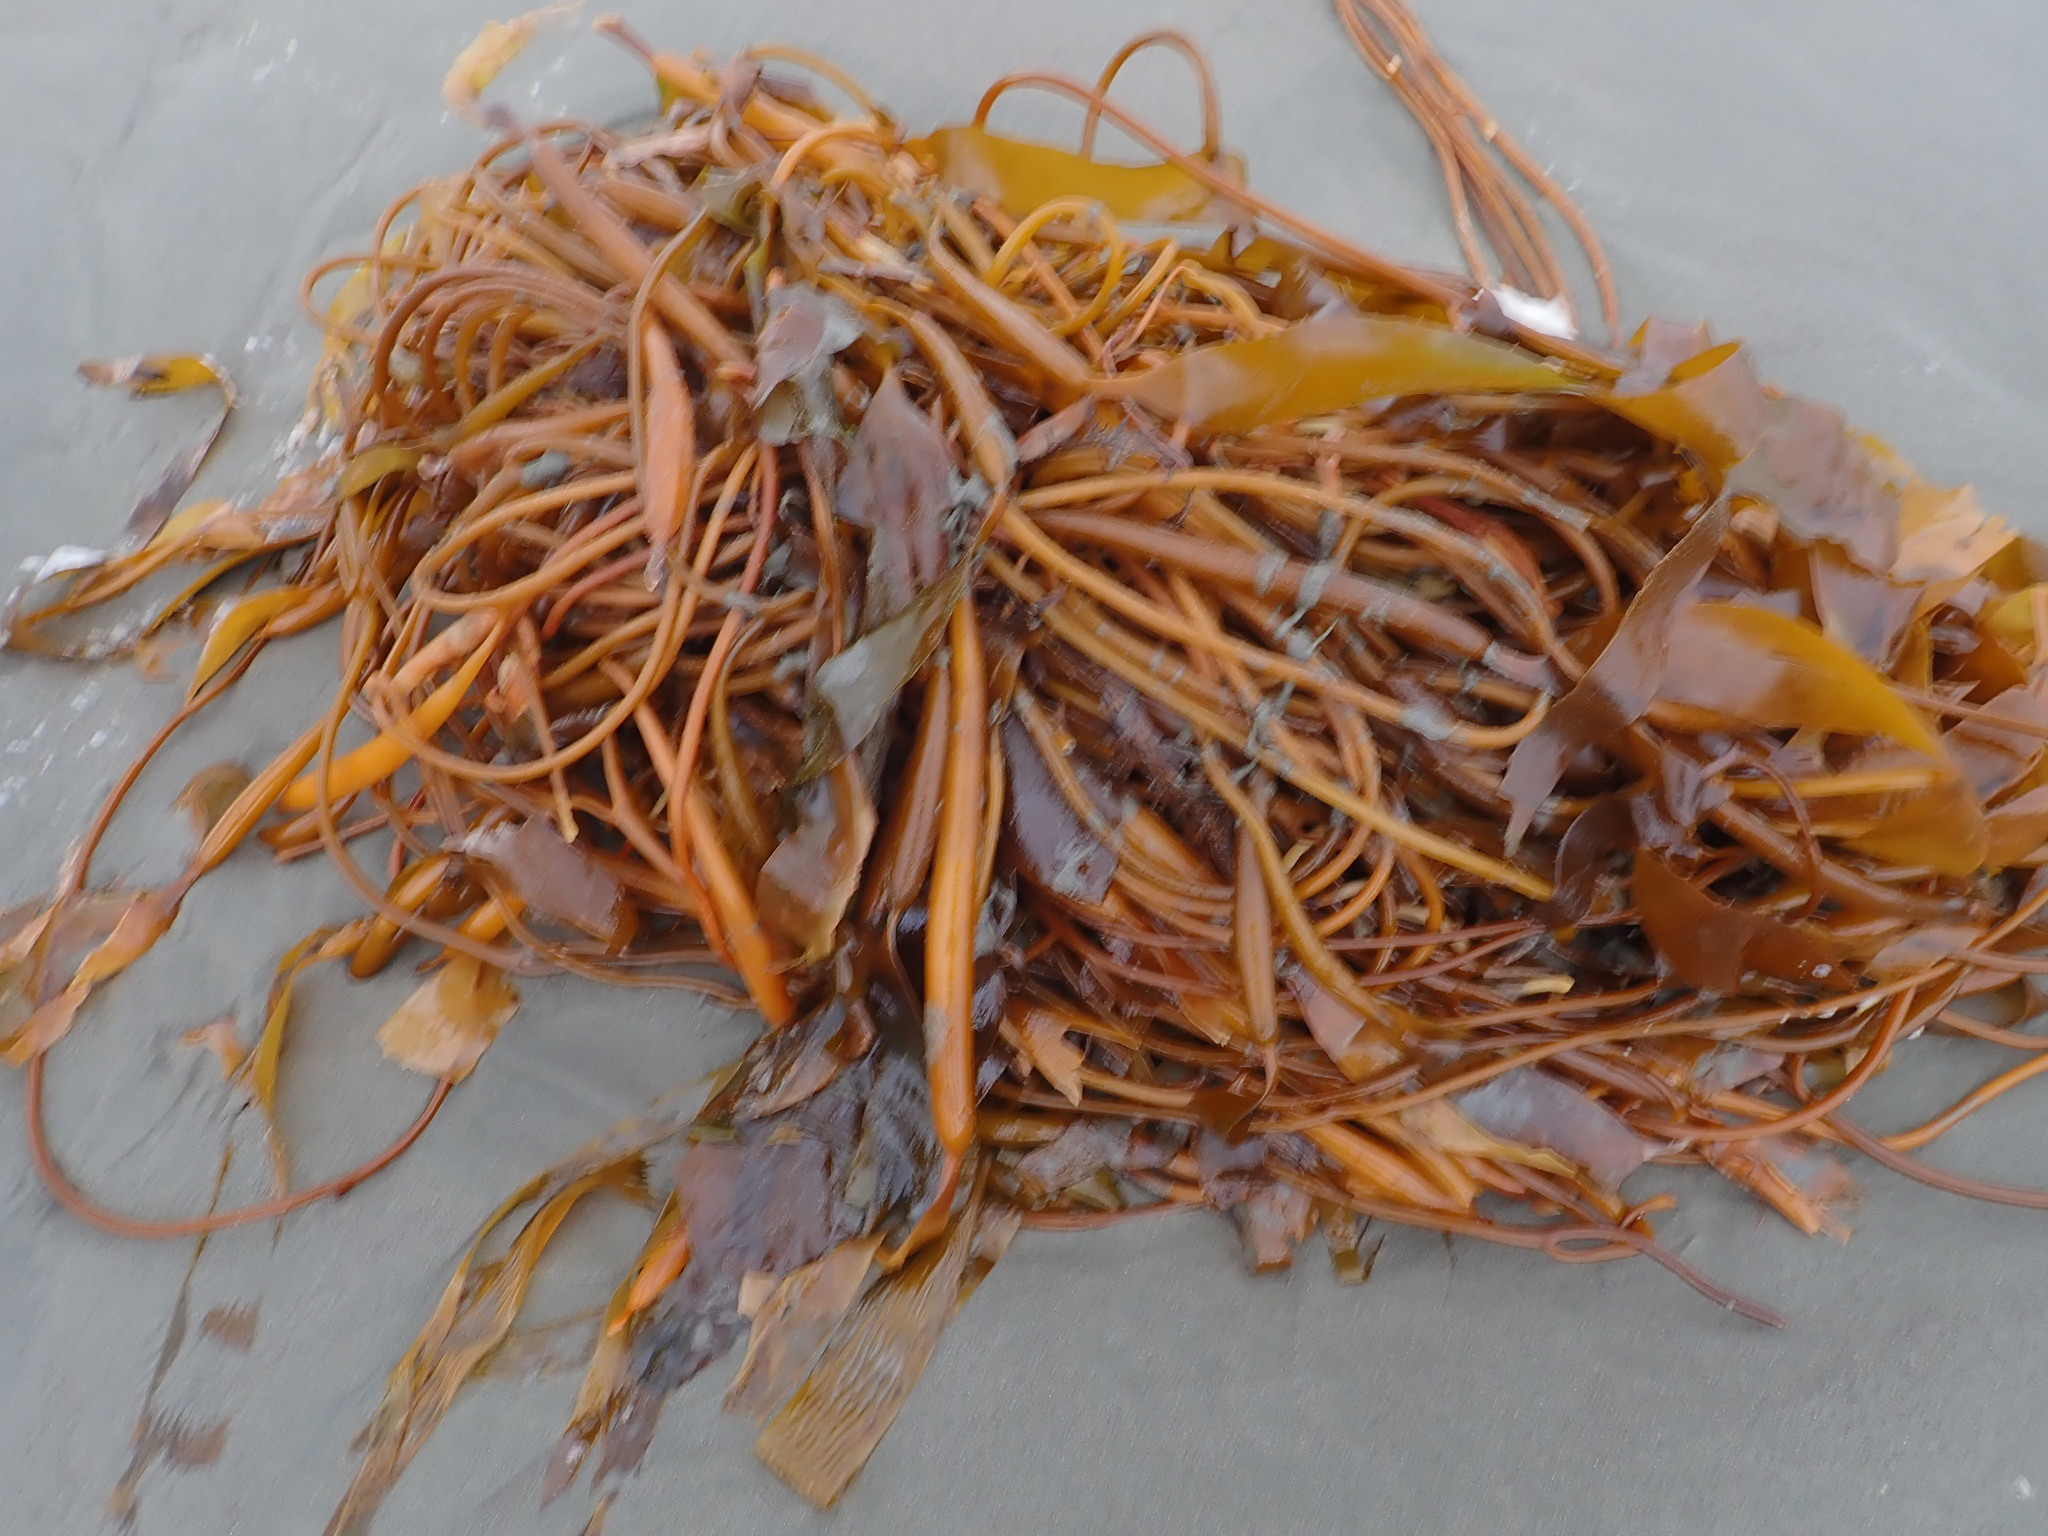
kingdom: Chromista
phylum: Ochrophyta
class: Phaeophyceae
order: Laminariales
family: Laminariaceae
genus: Macrocystis
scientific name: Macrocystis pyrifera
